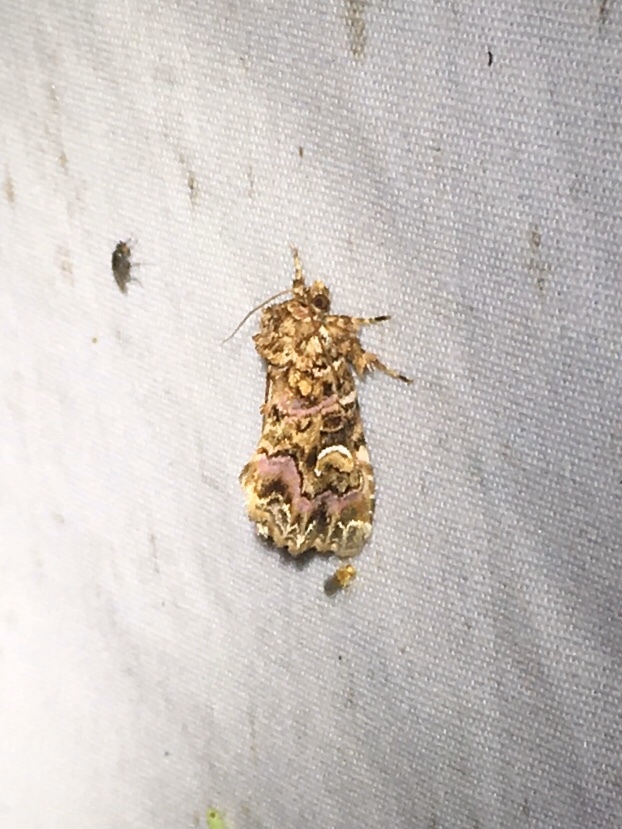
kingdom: Animalia
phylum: Arthropoda
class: Insecta
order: Lepidoptera
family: Noctuidae
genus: Callopistria
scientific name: Callopistria mollissima
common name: Pink-shaded fern moth
